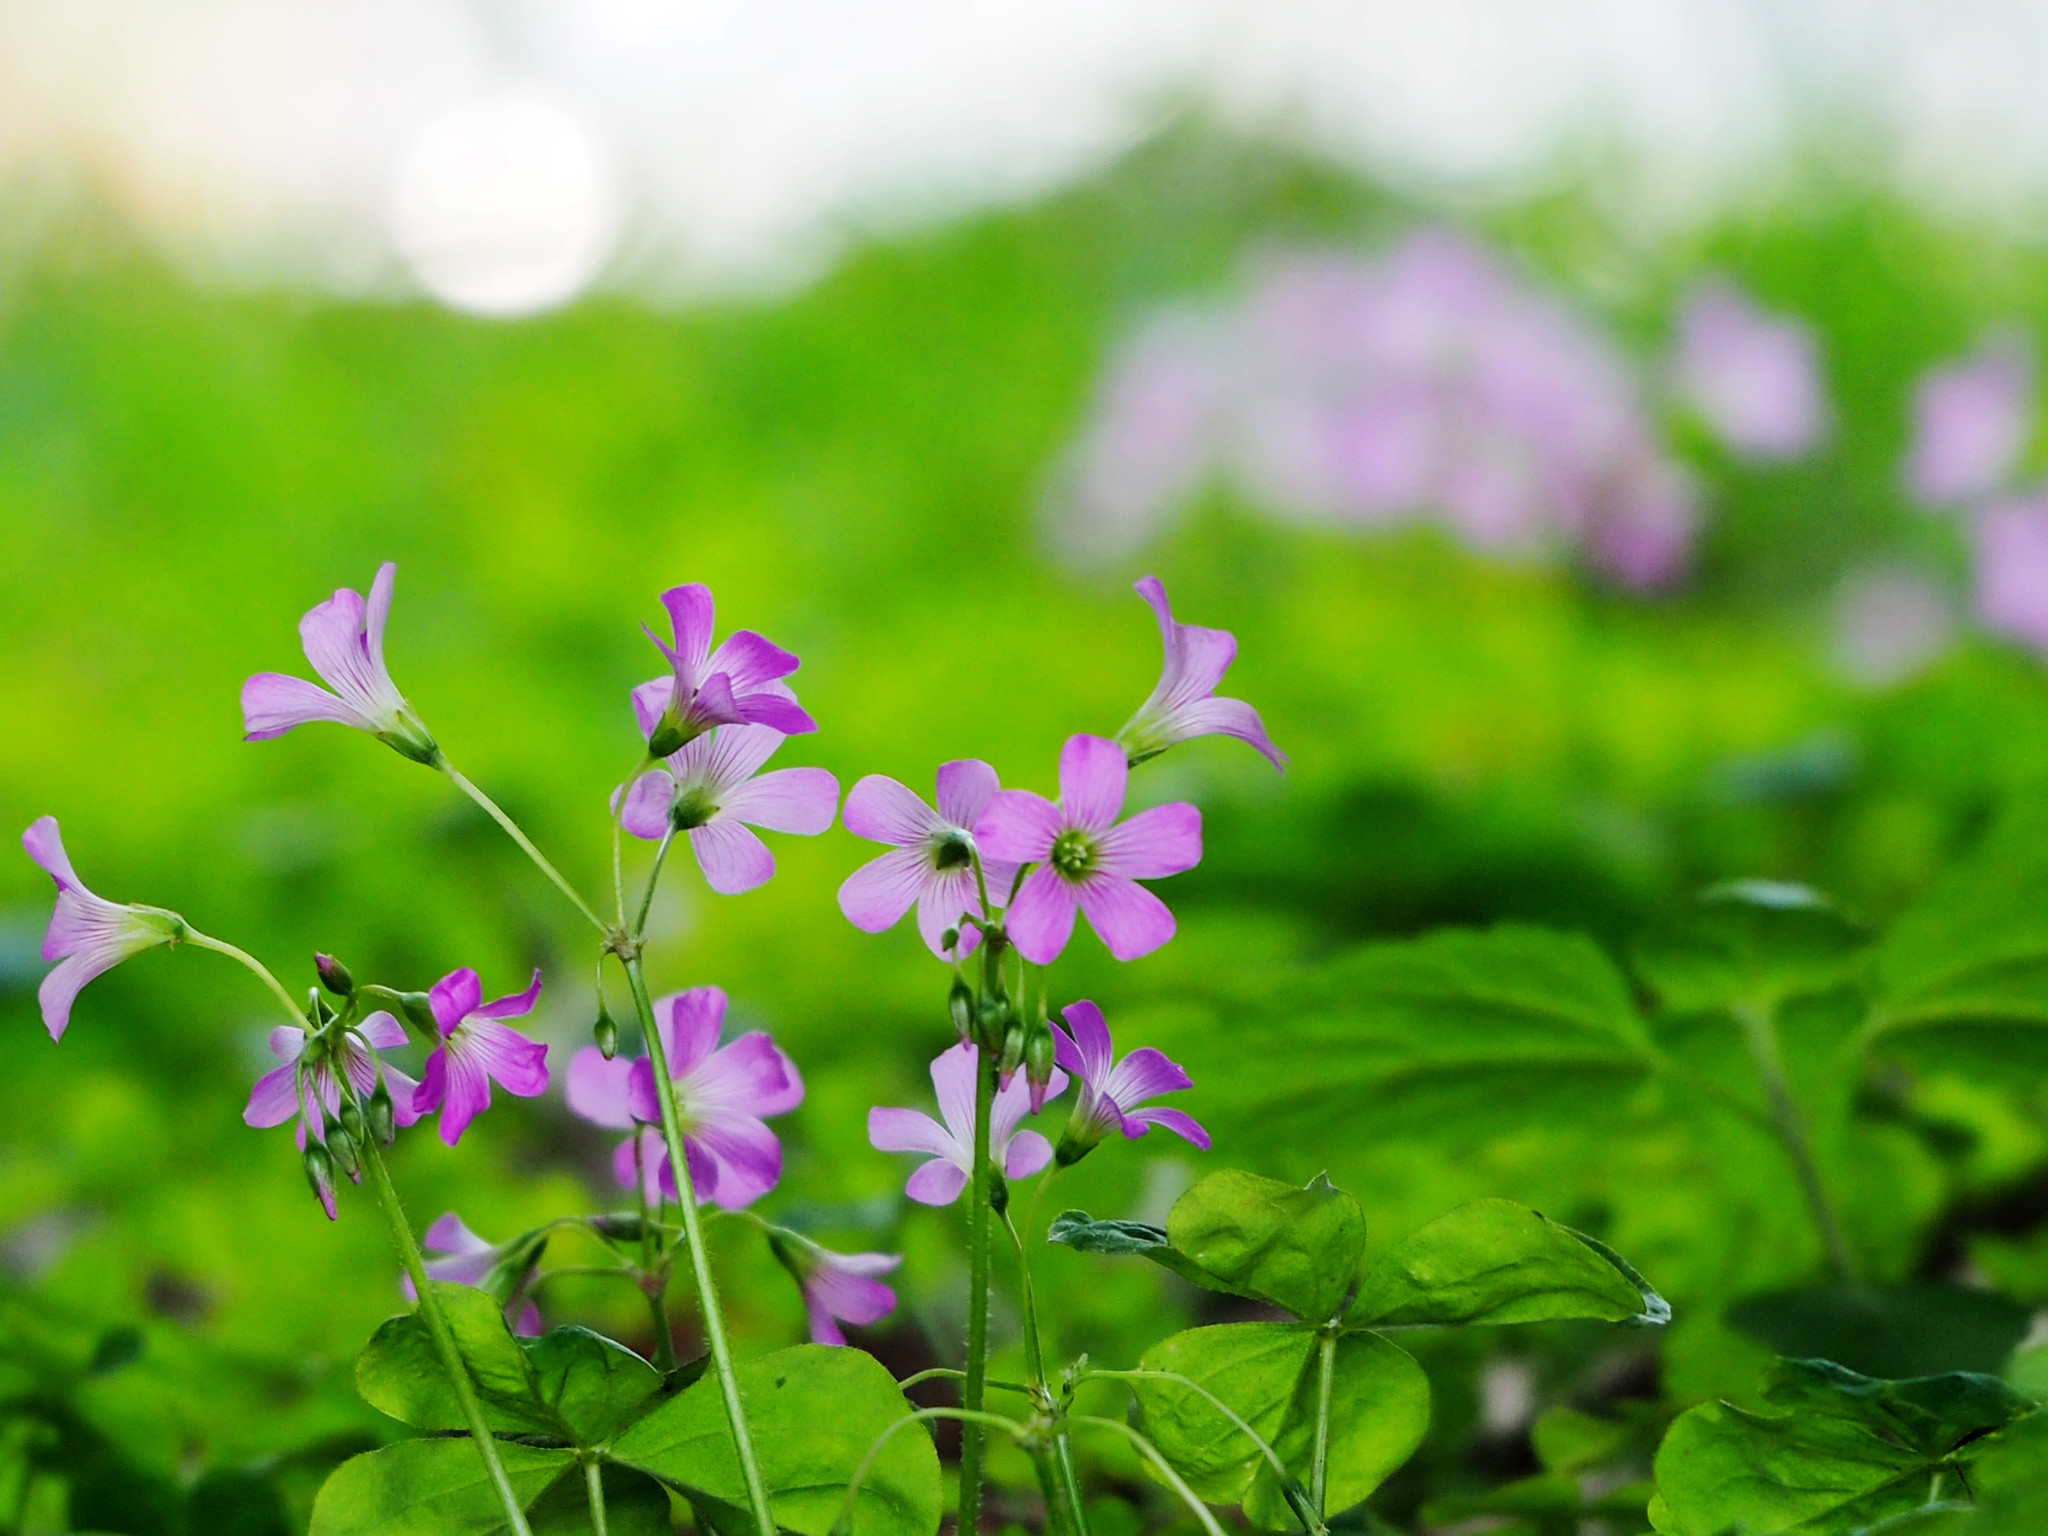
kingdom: Plantae
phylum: Tracheophyta
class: Magnoliopsida
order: Oxalidales
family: Oxalidaceae
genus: Oxalis
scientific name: Oxalis debilis
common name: Large-flowered pink-sorrel
